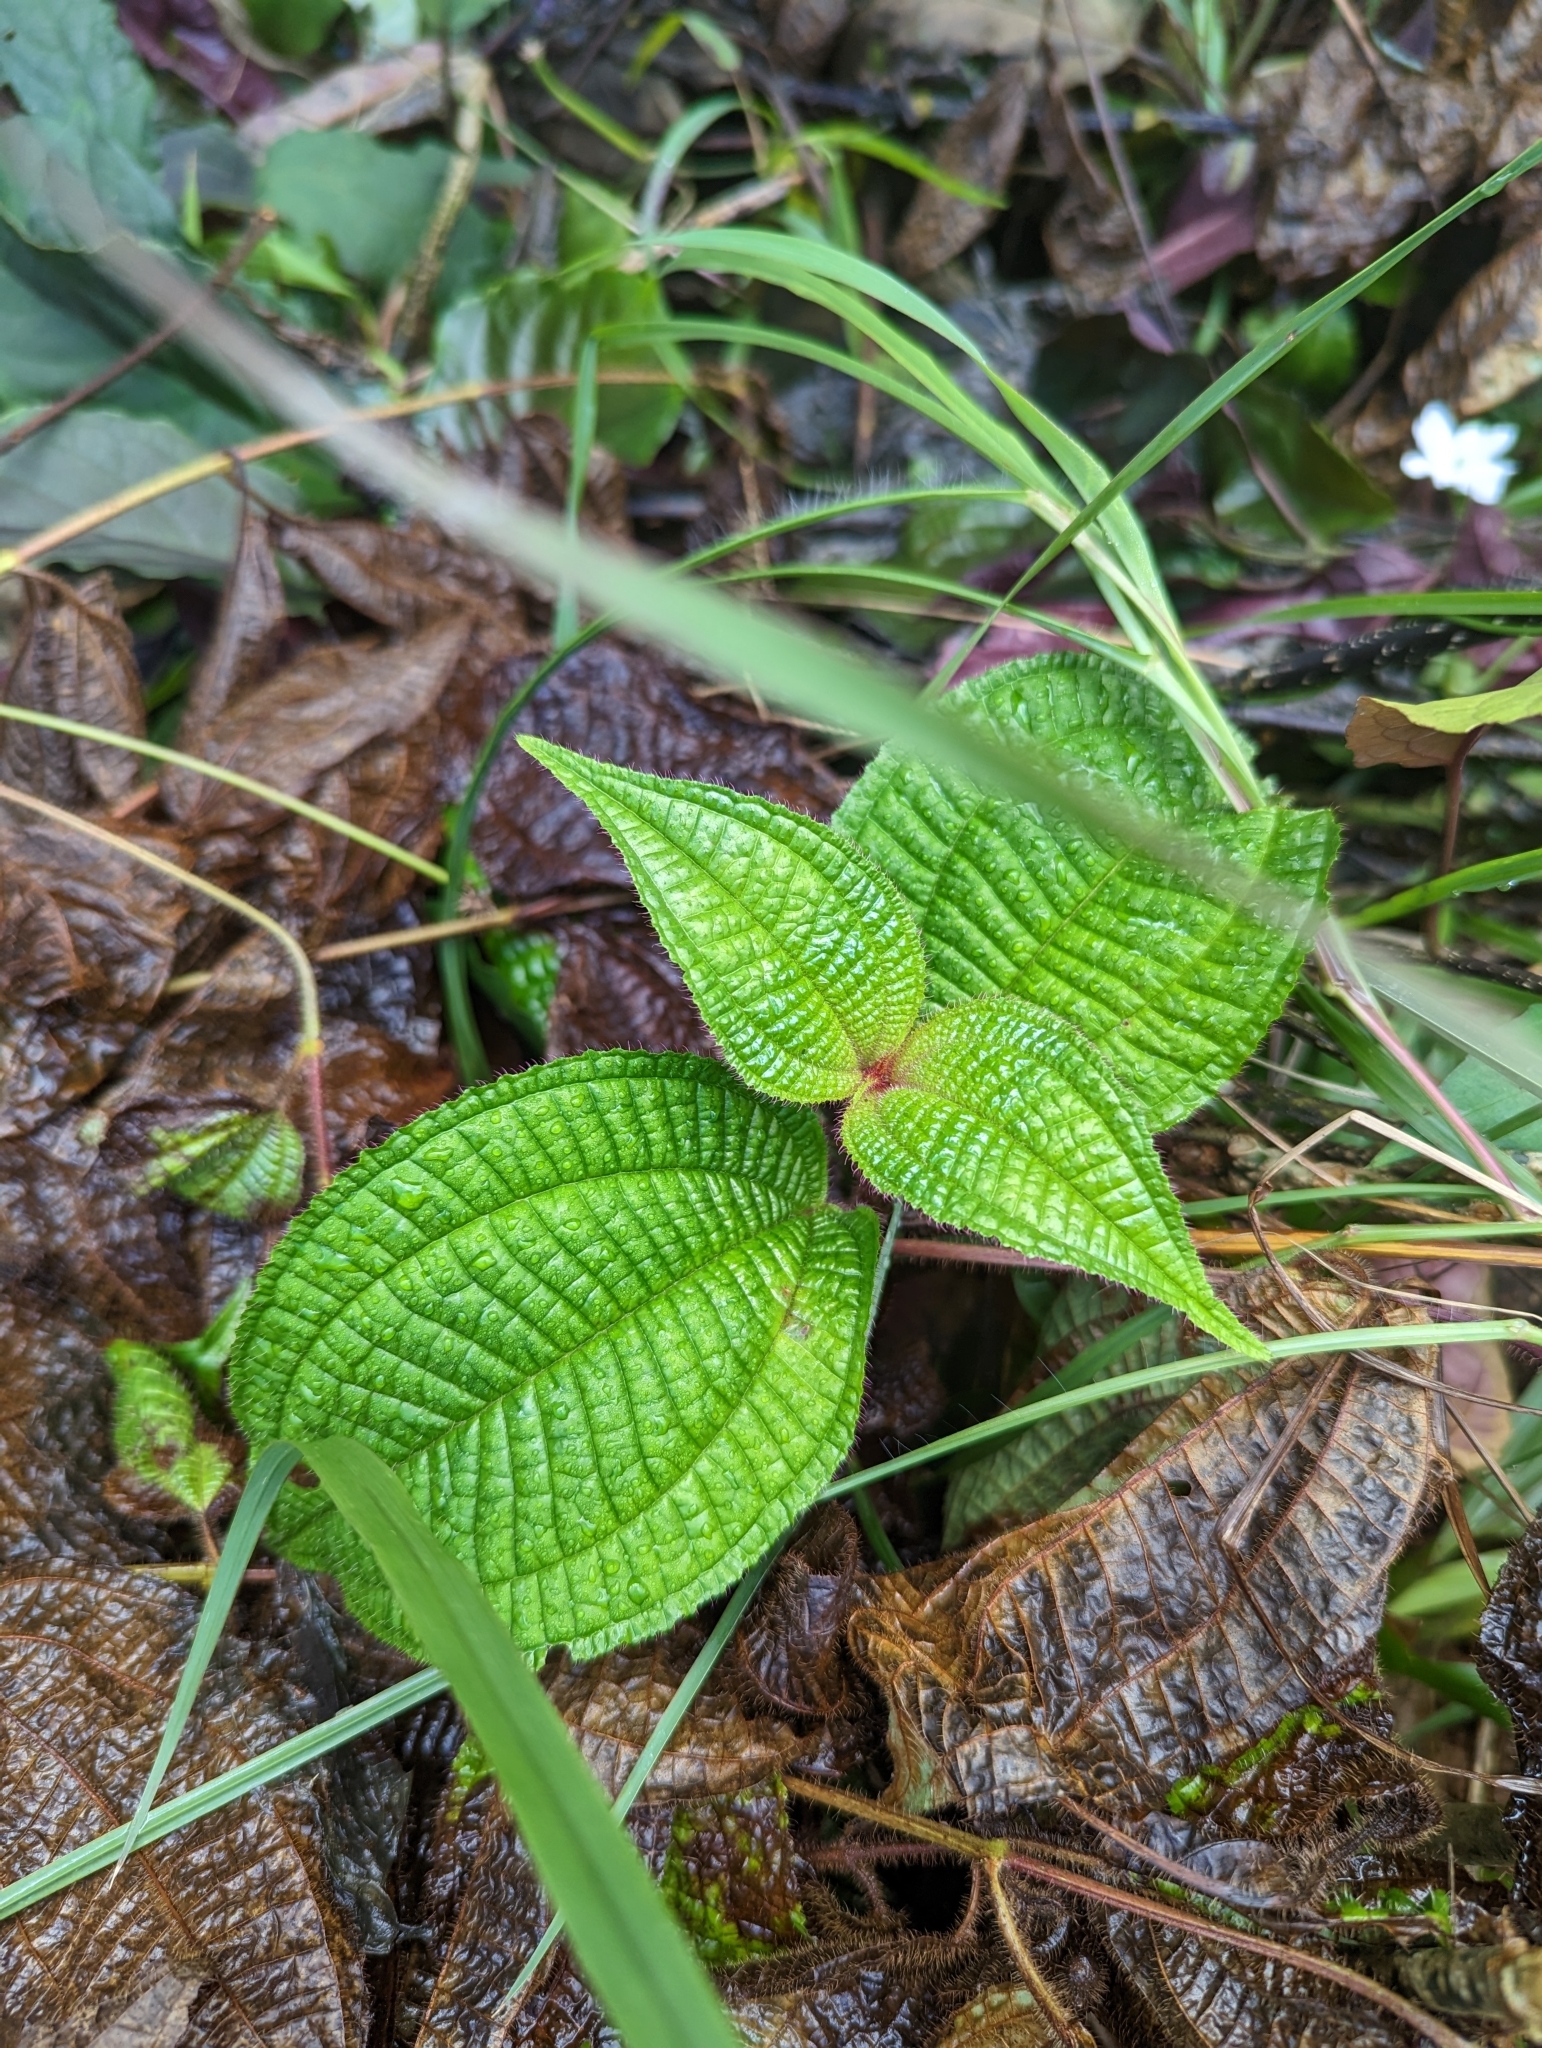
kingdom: Plantae
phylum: Tracheophyta
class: Magnoliopsida
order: Myrtales
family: Melastomataceae
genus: Miconia
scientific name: Miconia crenata
